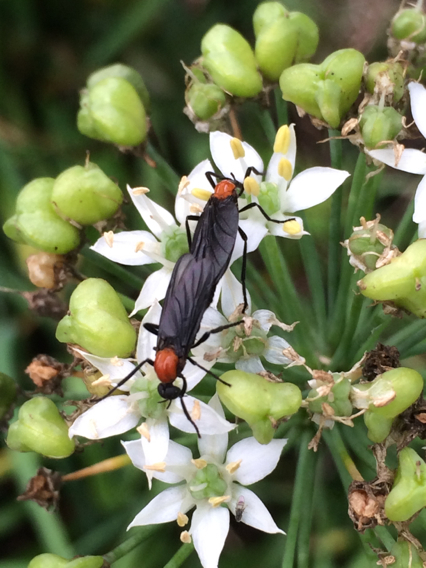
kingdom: Animalia
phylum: Arthropoda
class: Insecta
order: Diptera
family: Bibionidae
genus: Plecia
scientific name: Plecia nearctica
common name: March fly
